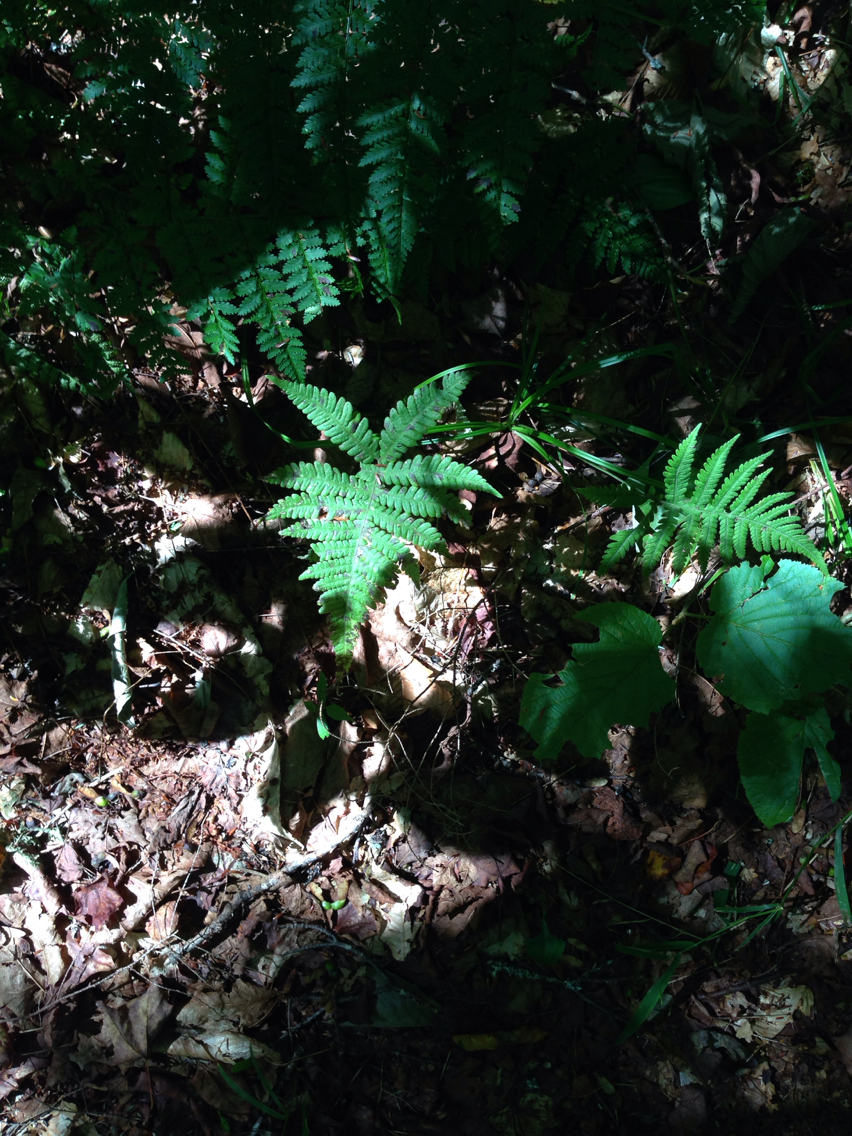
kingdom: Plantae
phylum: Tracheophyta
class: Polypodiopsida
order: Polypodiales
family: Thelypteridaceae
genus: Phegopteris
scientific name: Phegopteris connectilis
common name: Beech fern
